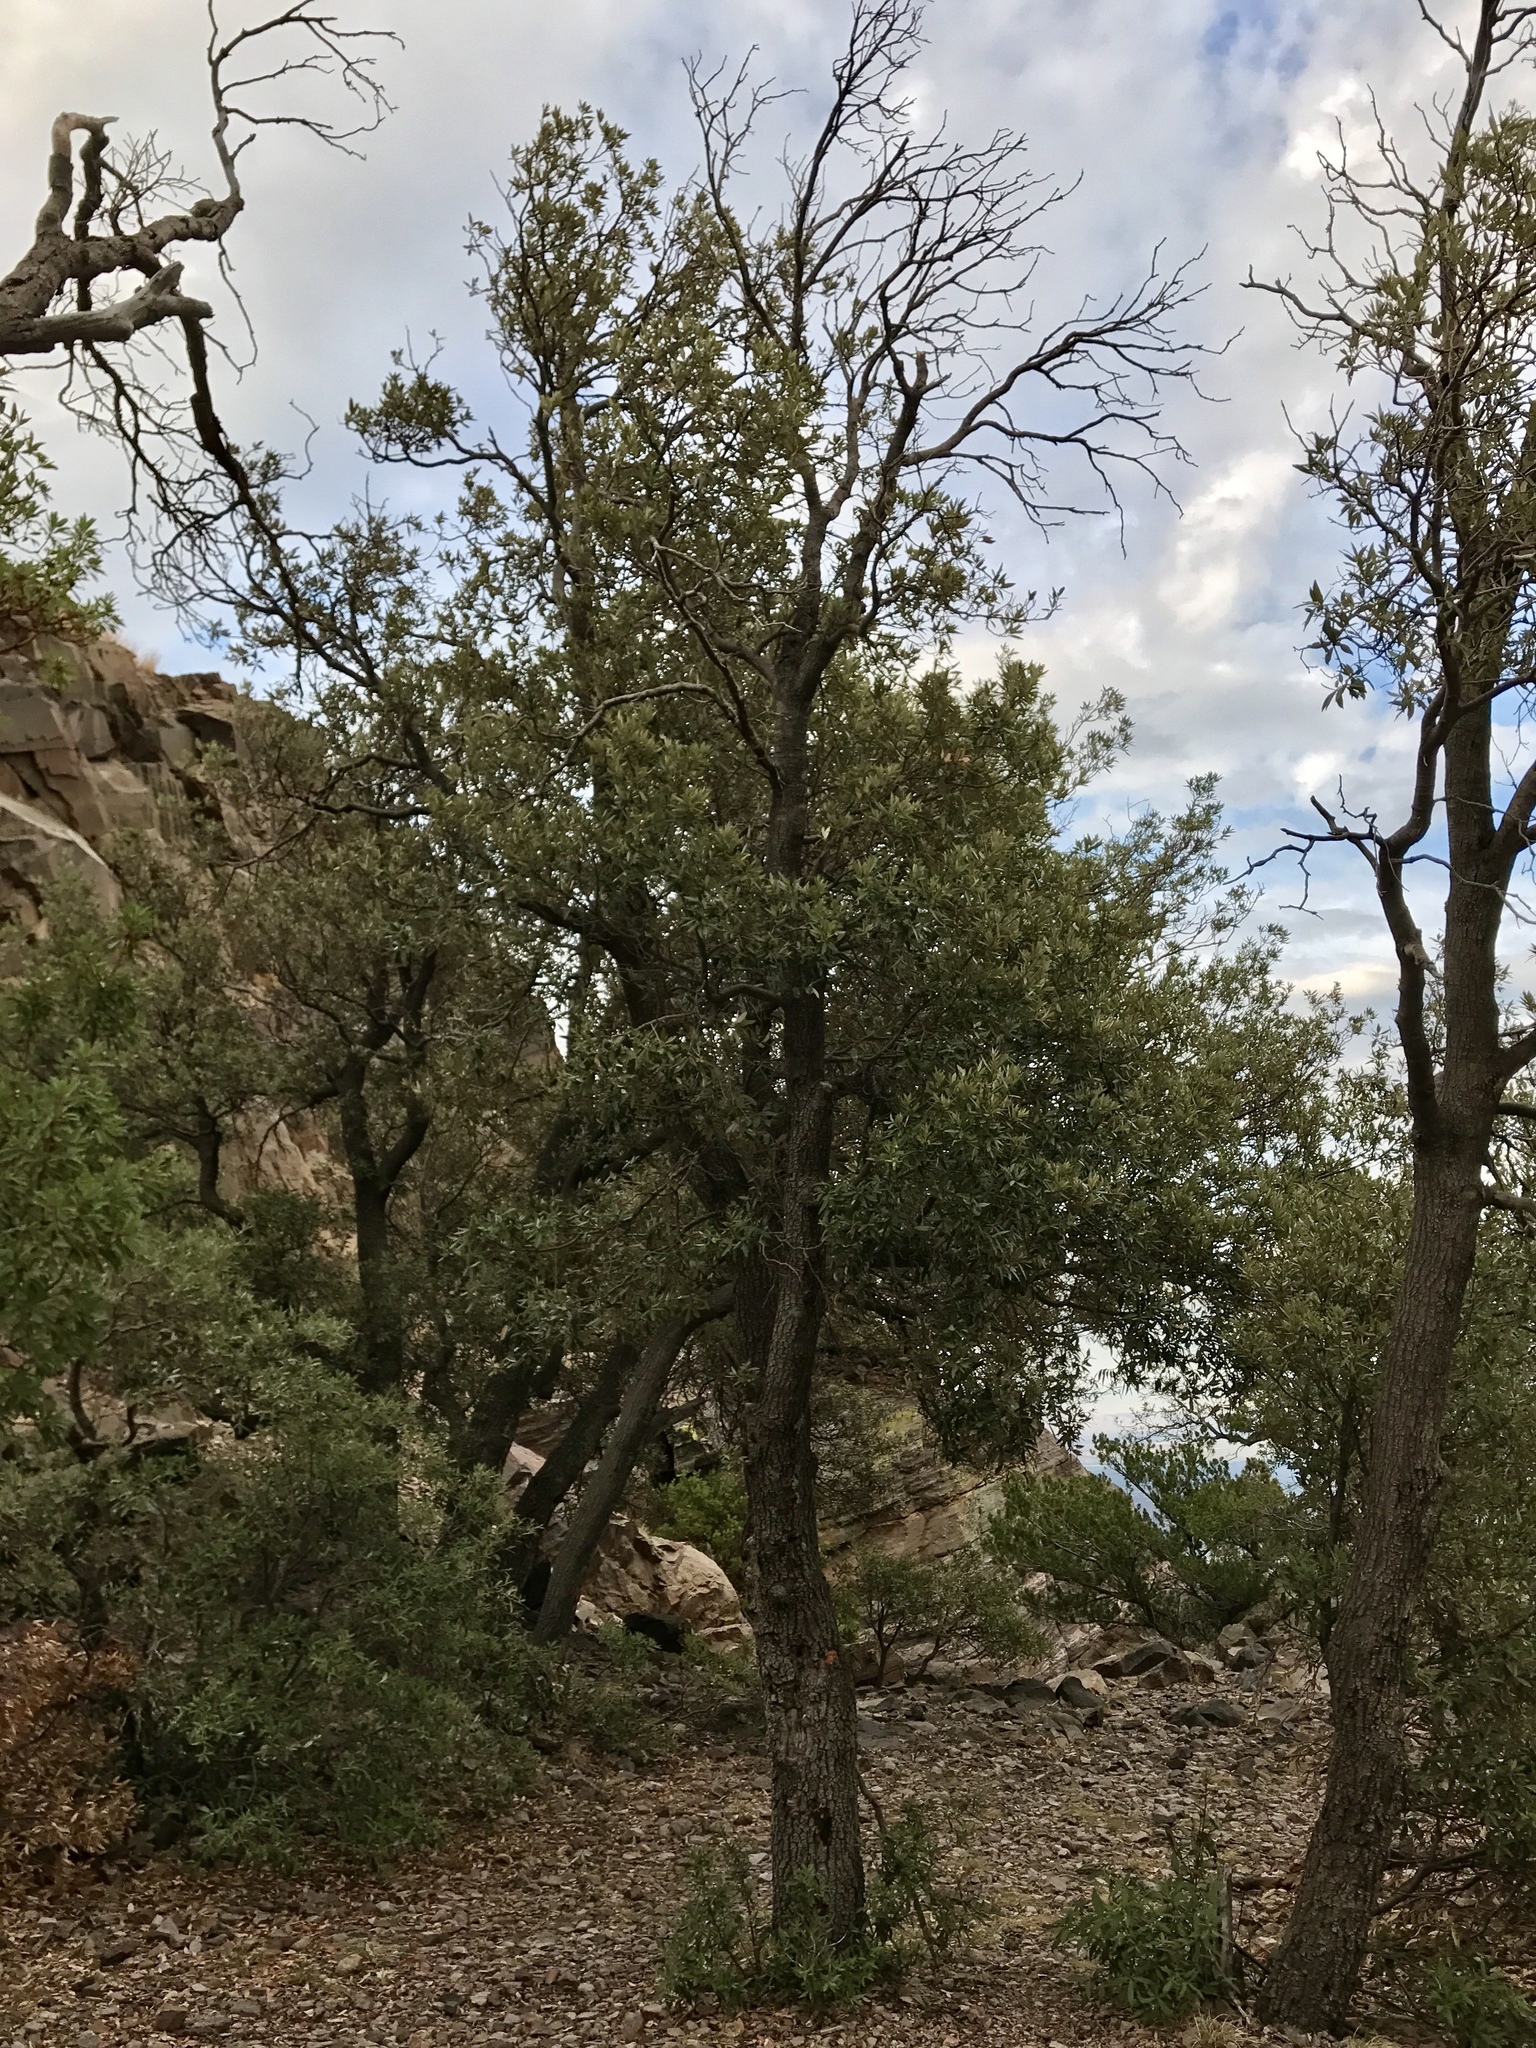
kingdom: Plantae
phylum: Tracheophyta
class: Magnoliopsida
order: Fagales
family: Fagaceae
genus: Quercus
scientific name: Quercus hypoleucoides
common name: Silverleaf oak
